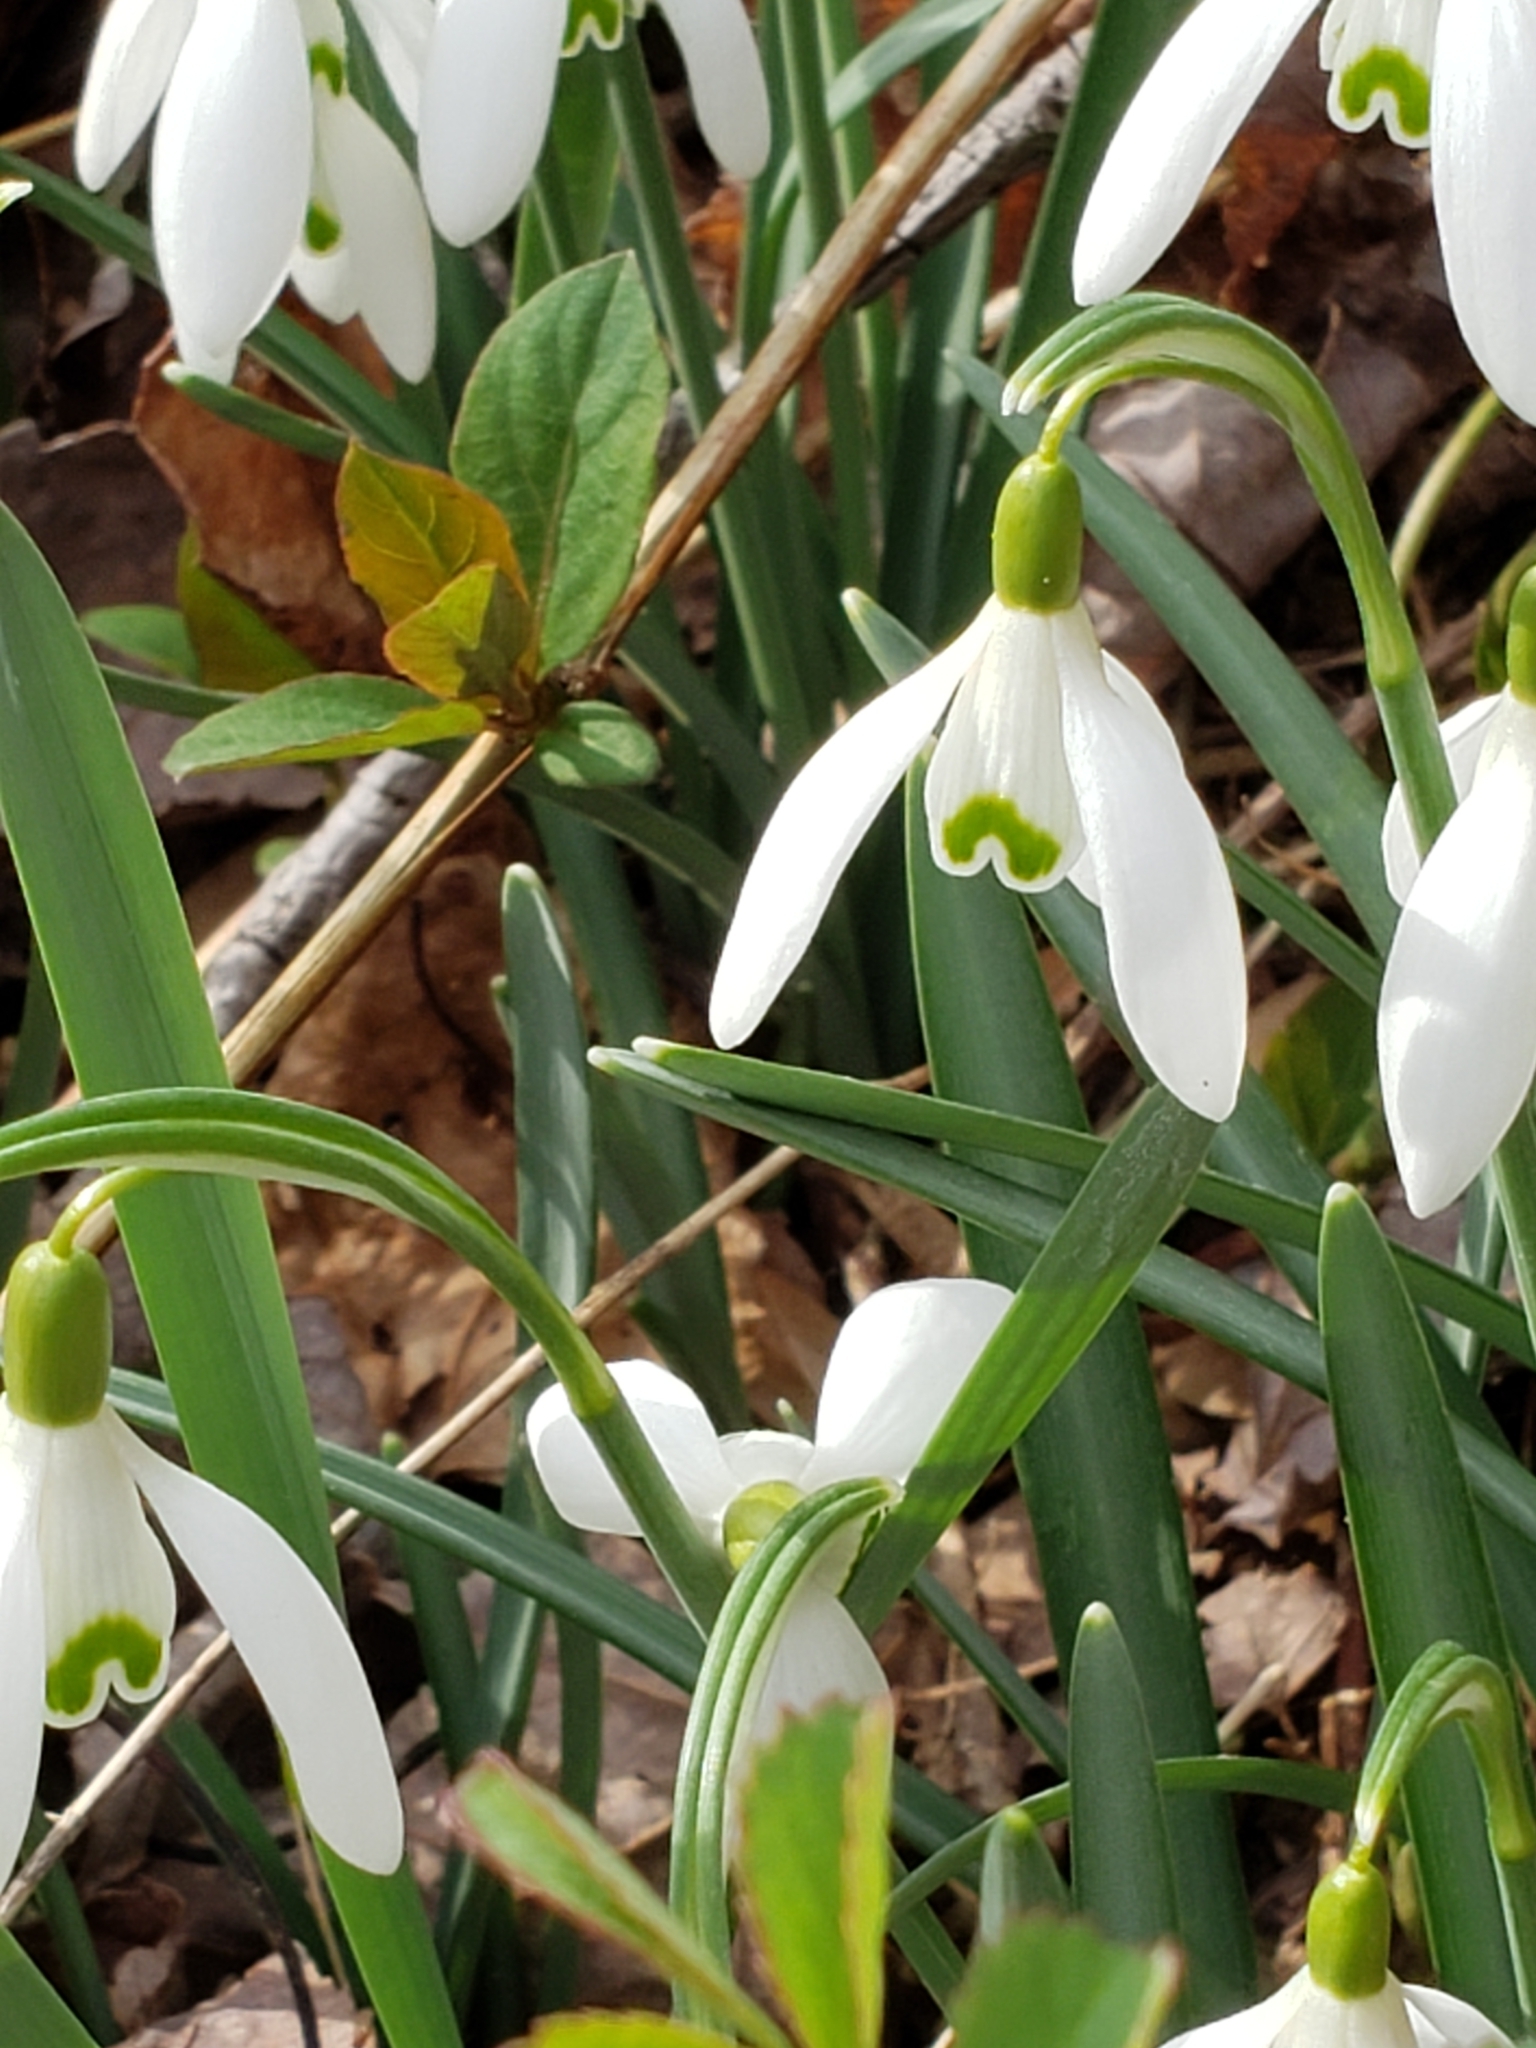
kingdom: Plantae
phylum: Tracheophyta
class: Liliopsida
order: Asparagales
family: Amaryllidaceae
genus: Galanthus
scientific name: Galanthus nivalis
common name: Snowdrop
